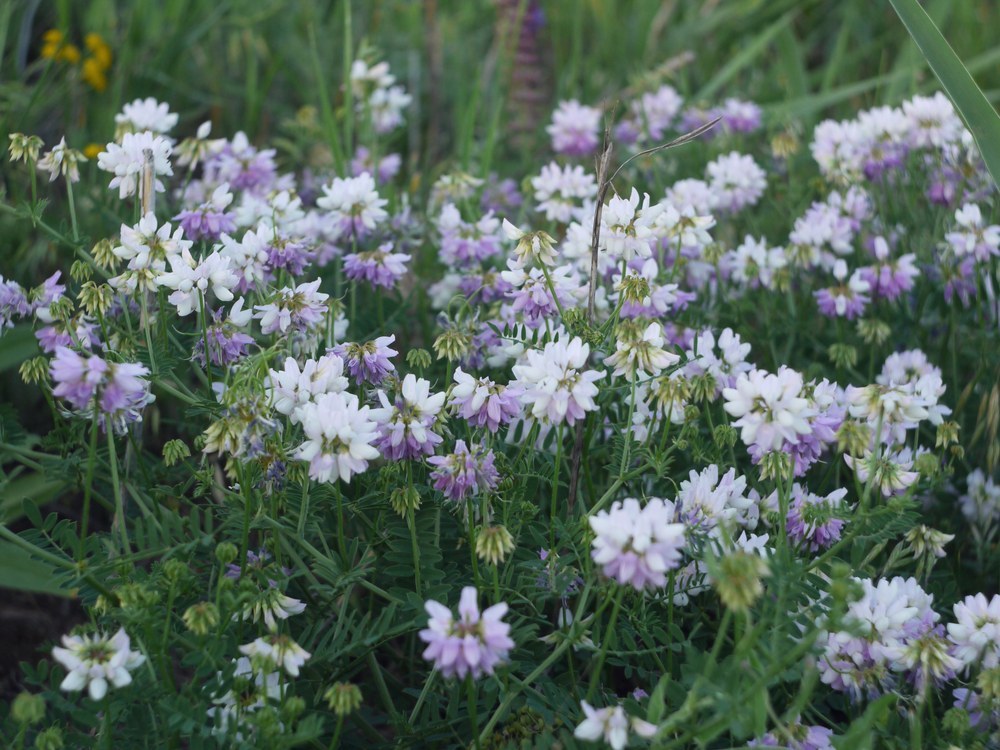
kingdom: Plantae
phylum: Tracheophyta
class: Magnoliopsida
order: Fabales
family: Fabaceae
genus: Coronilla
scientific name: Coronilla varia
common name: Crownvetch
